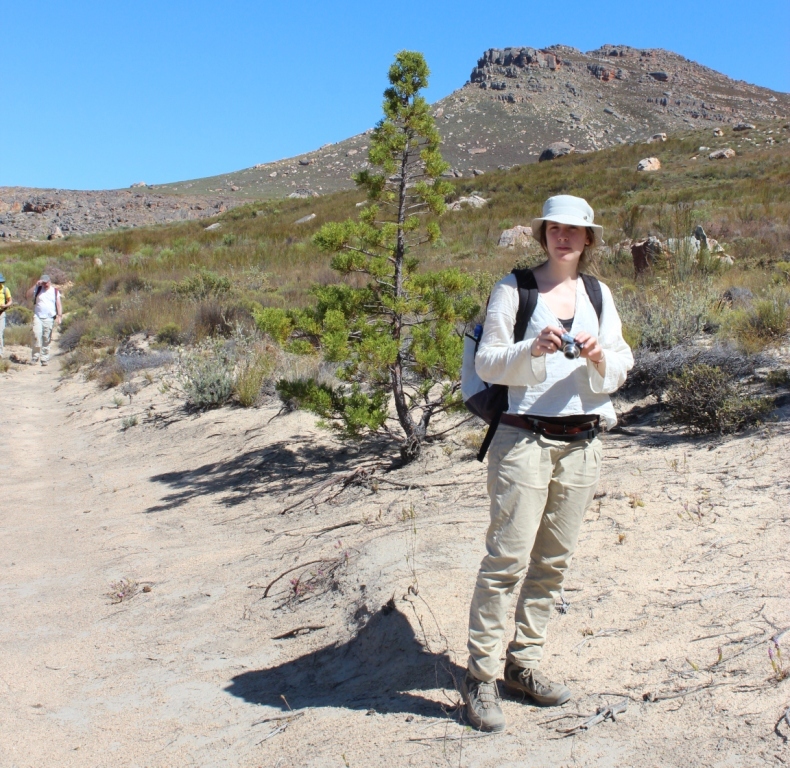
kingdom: Plantae
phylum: Tracheophyta
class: Pinopsida
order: Pinales
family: Cupressaceae
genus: Widdringtonia
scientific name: Widdringtonia nodiflora
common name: Cape cypress
